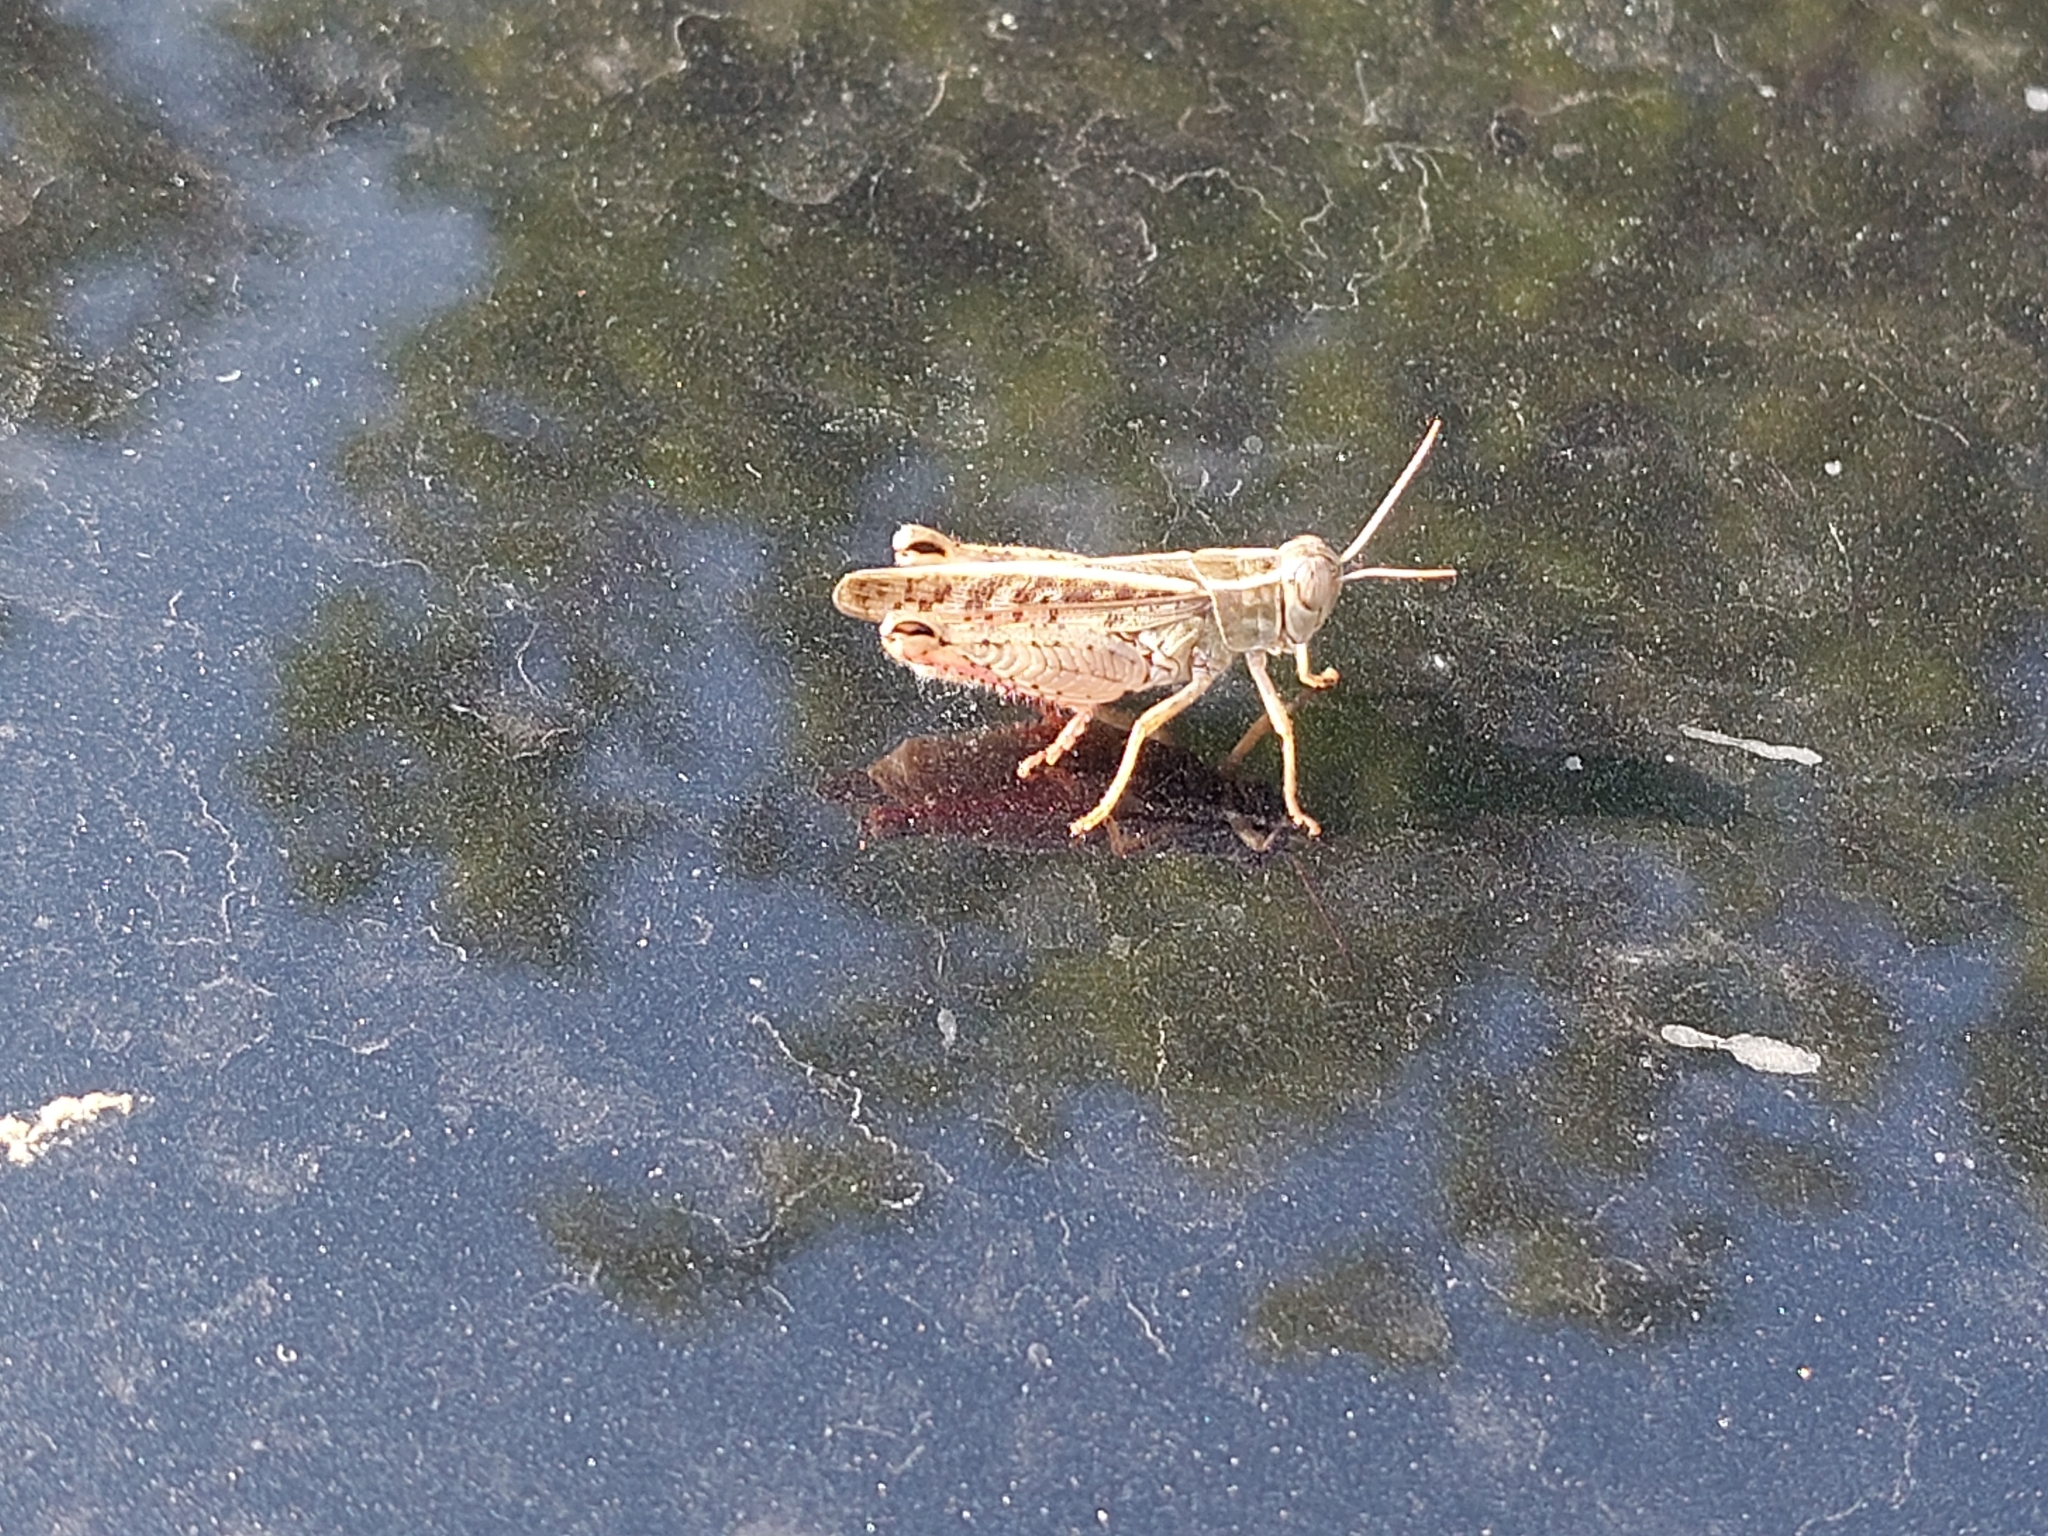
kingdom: Animalia
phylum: Arthropoda
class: Insecta
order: Orthoptera
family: Acrididae
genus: Calliptamus
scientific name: Calliptamus italicus
